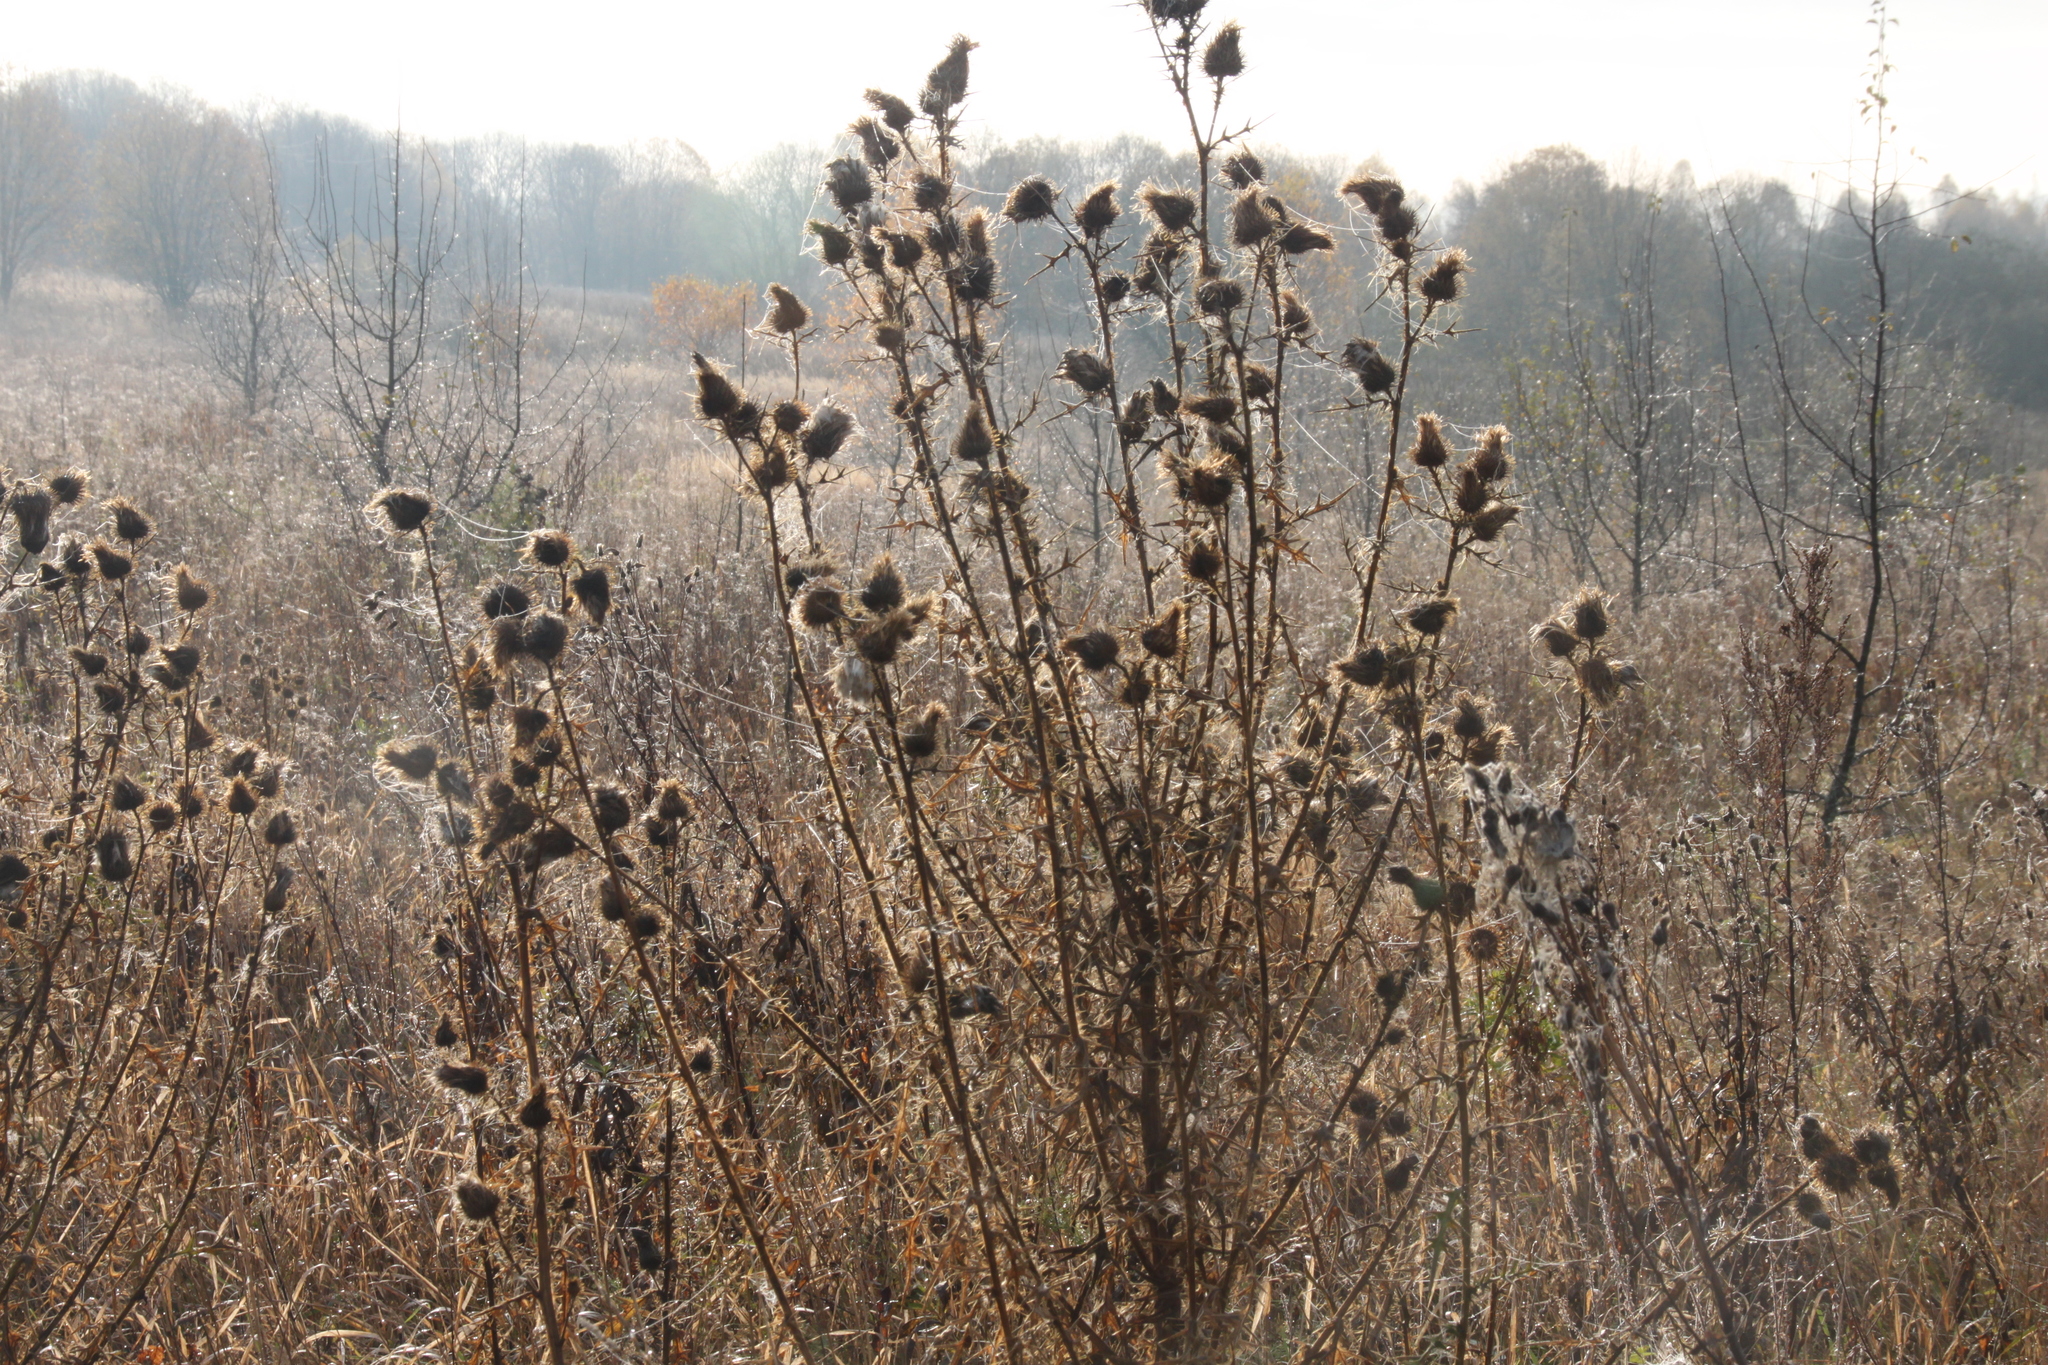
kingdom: Plantae
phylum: Tracheophyta
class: Magnoliopsida
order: Asterales
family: Asteraceae
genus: Cirsium
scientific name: Cirsium vulgare
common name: Bull thistle
